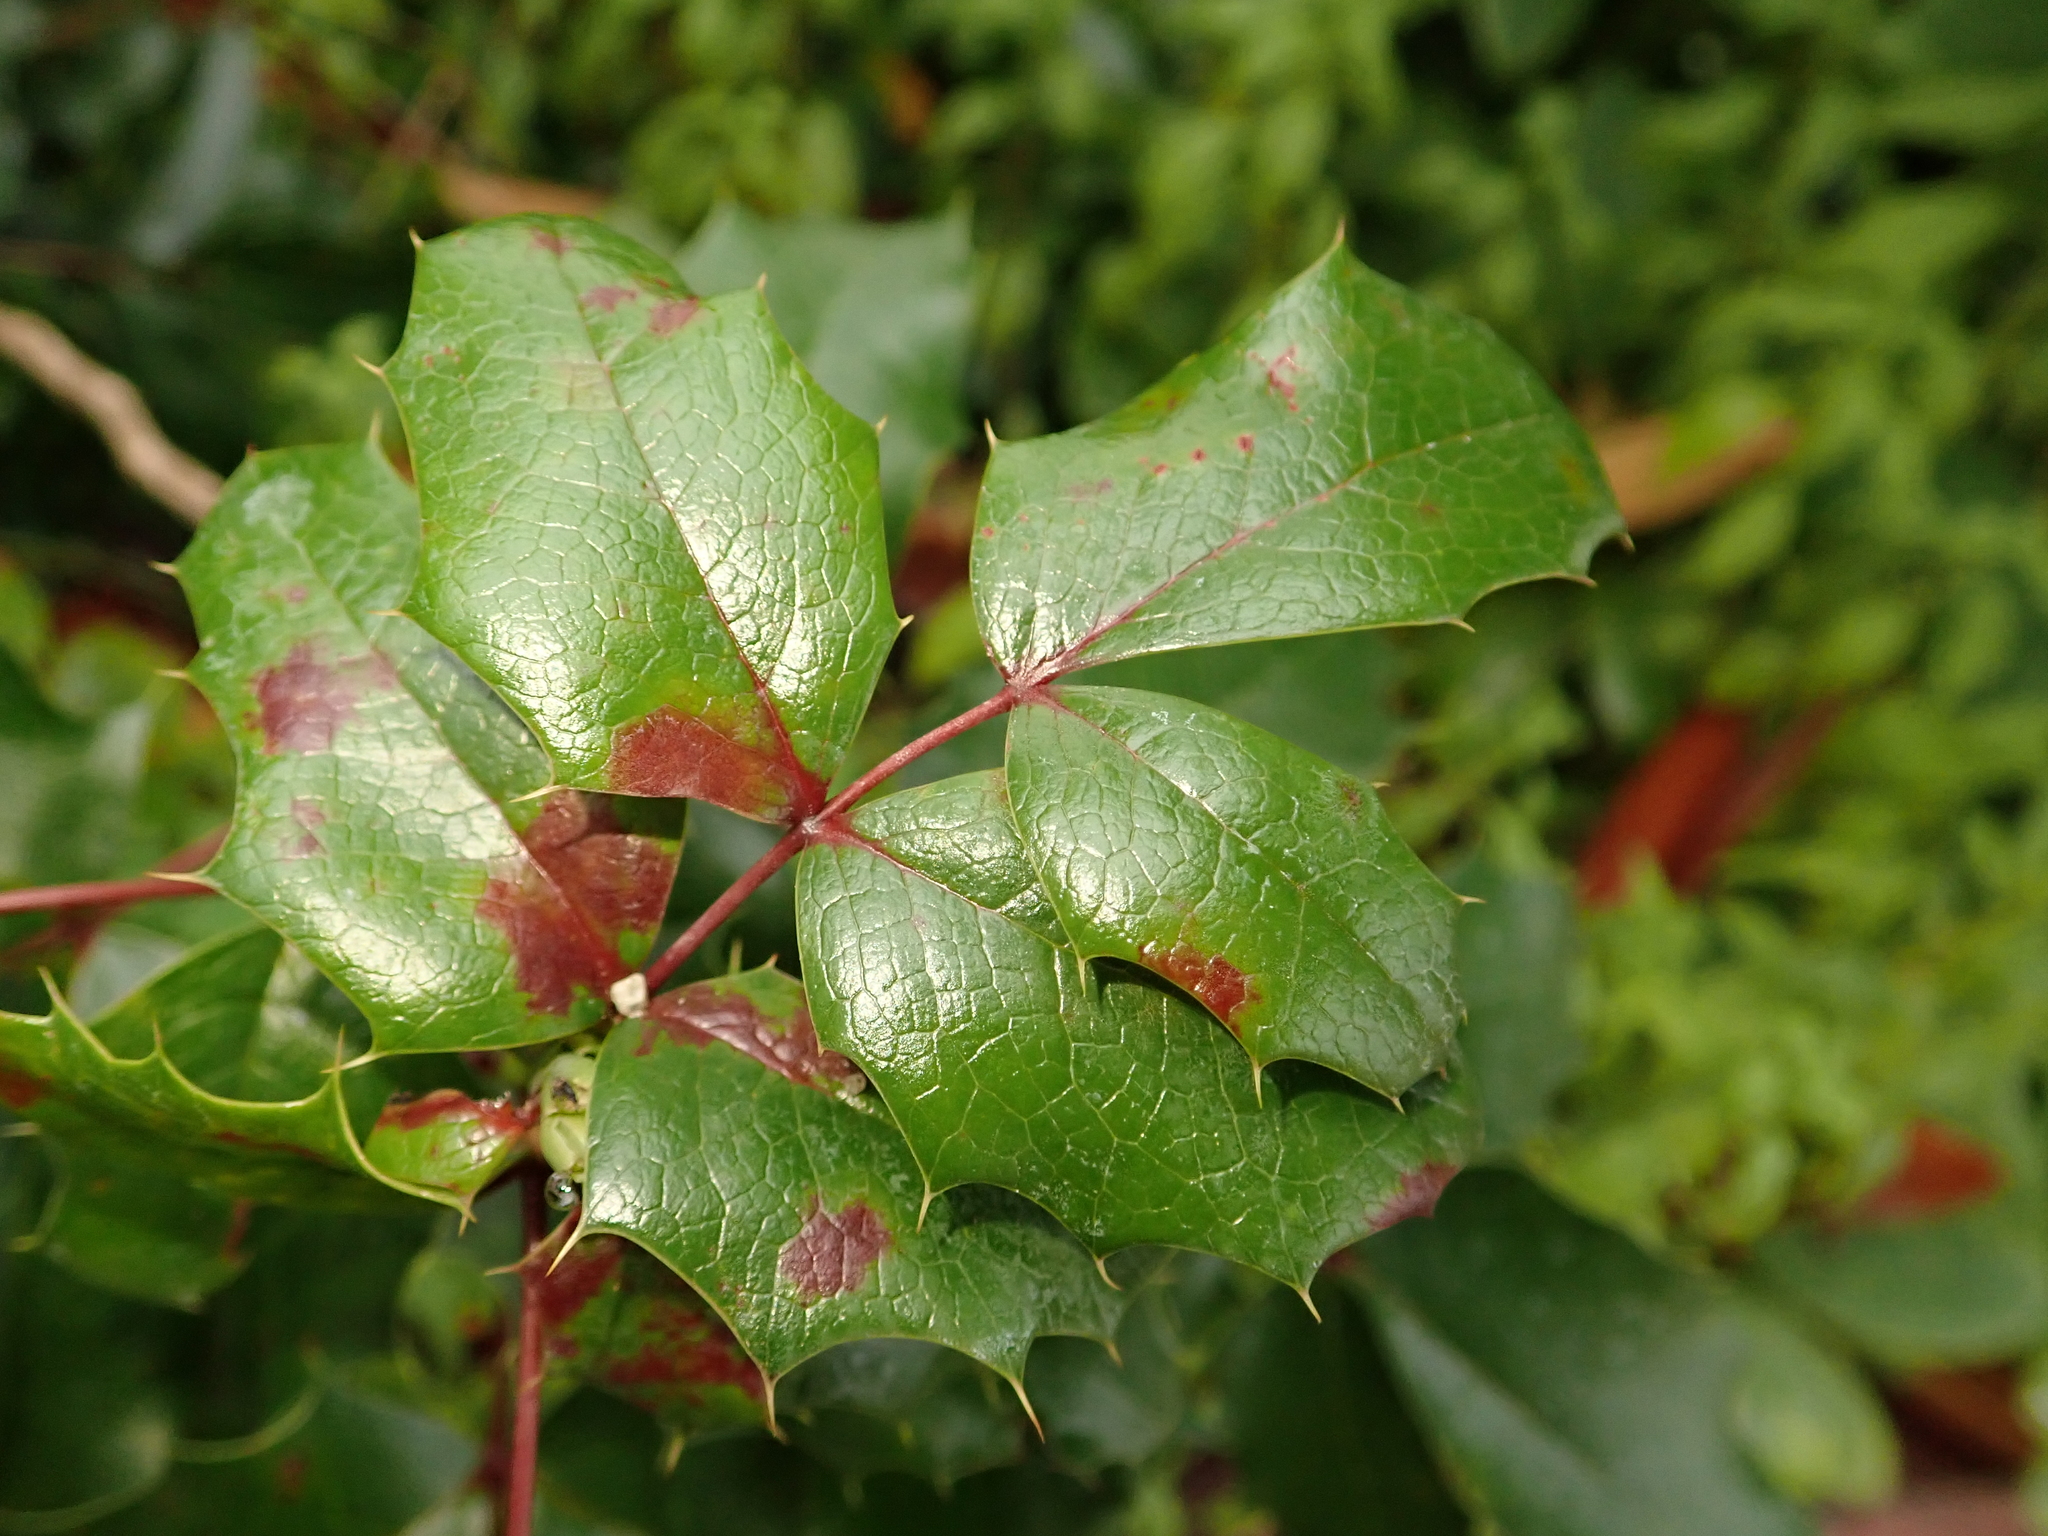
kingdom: Plantae
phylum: Tracheophyta
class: Magnoliopsida
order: Ranunculales
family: Berberidaceae
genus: Mahonia
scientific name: Mahonia aquifolium
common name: Oregon-grape
